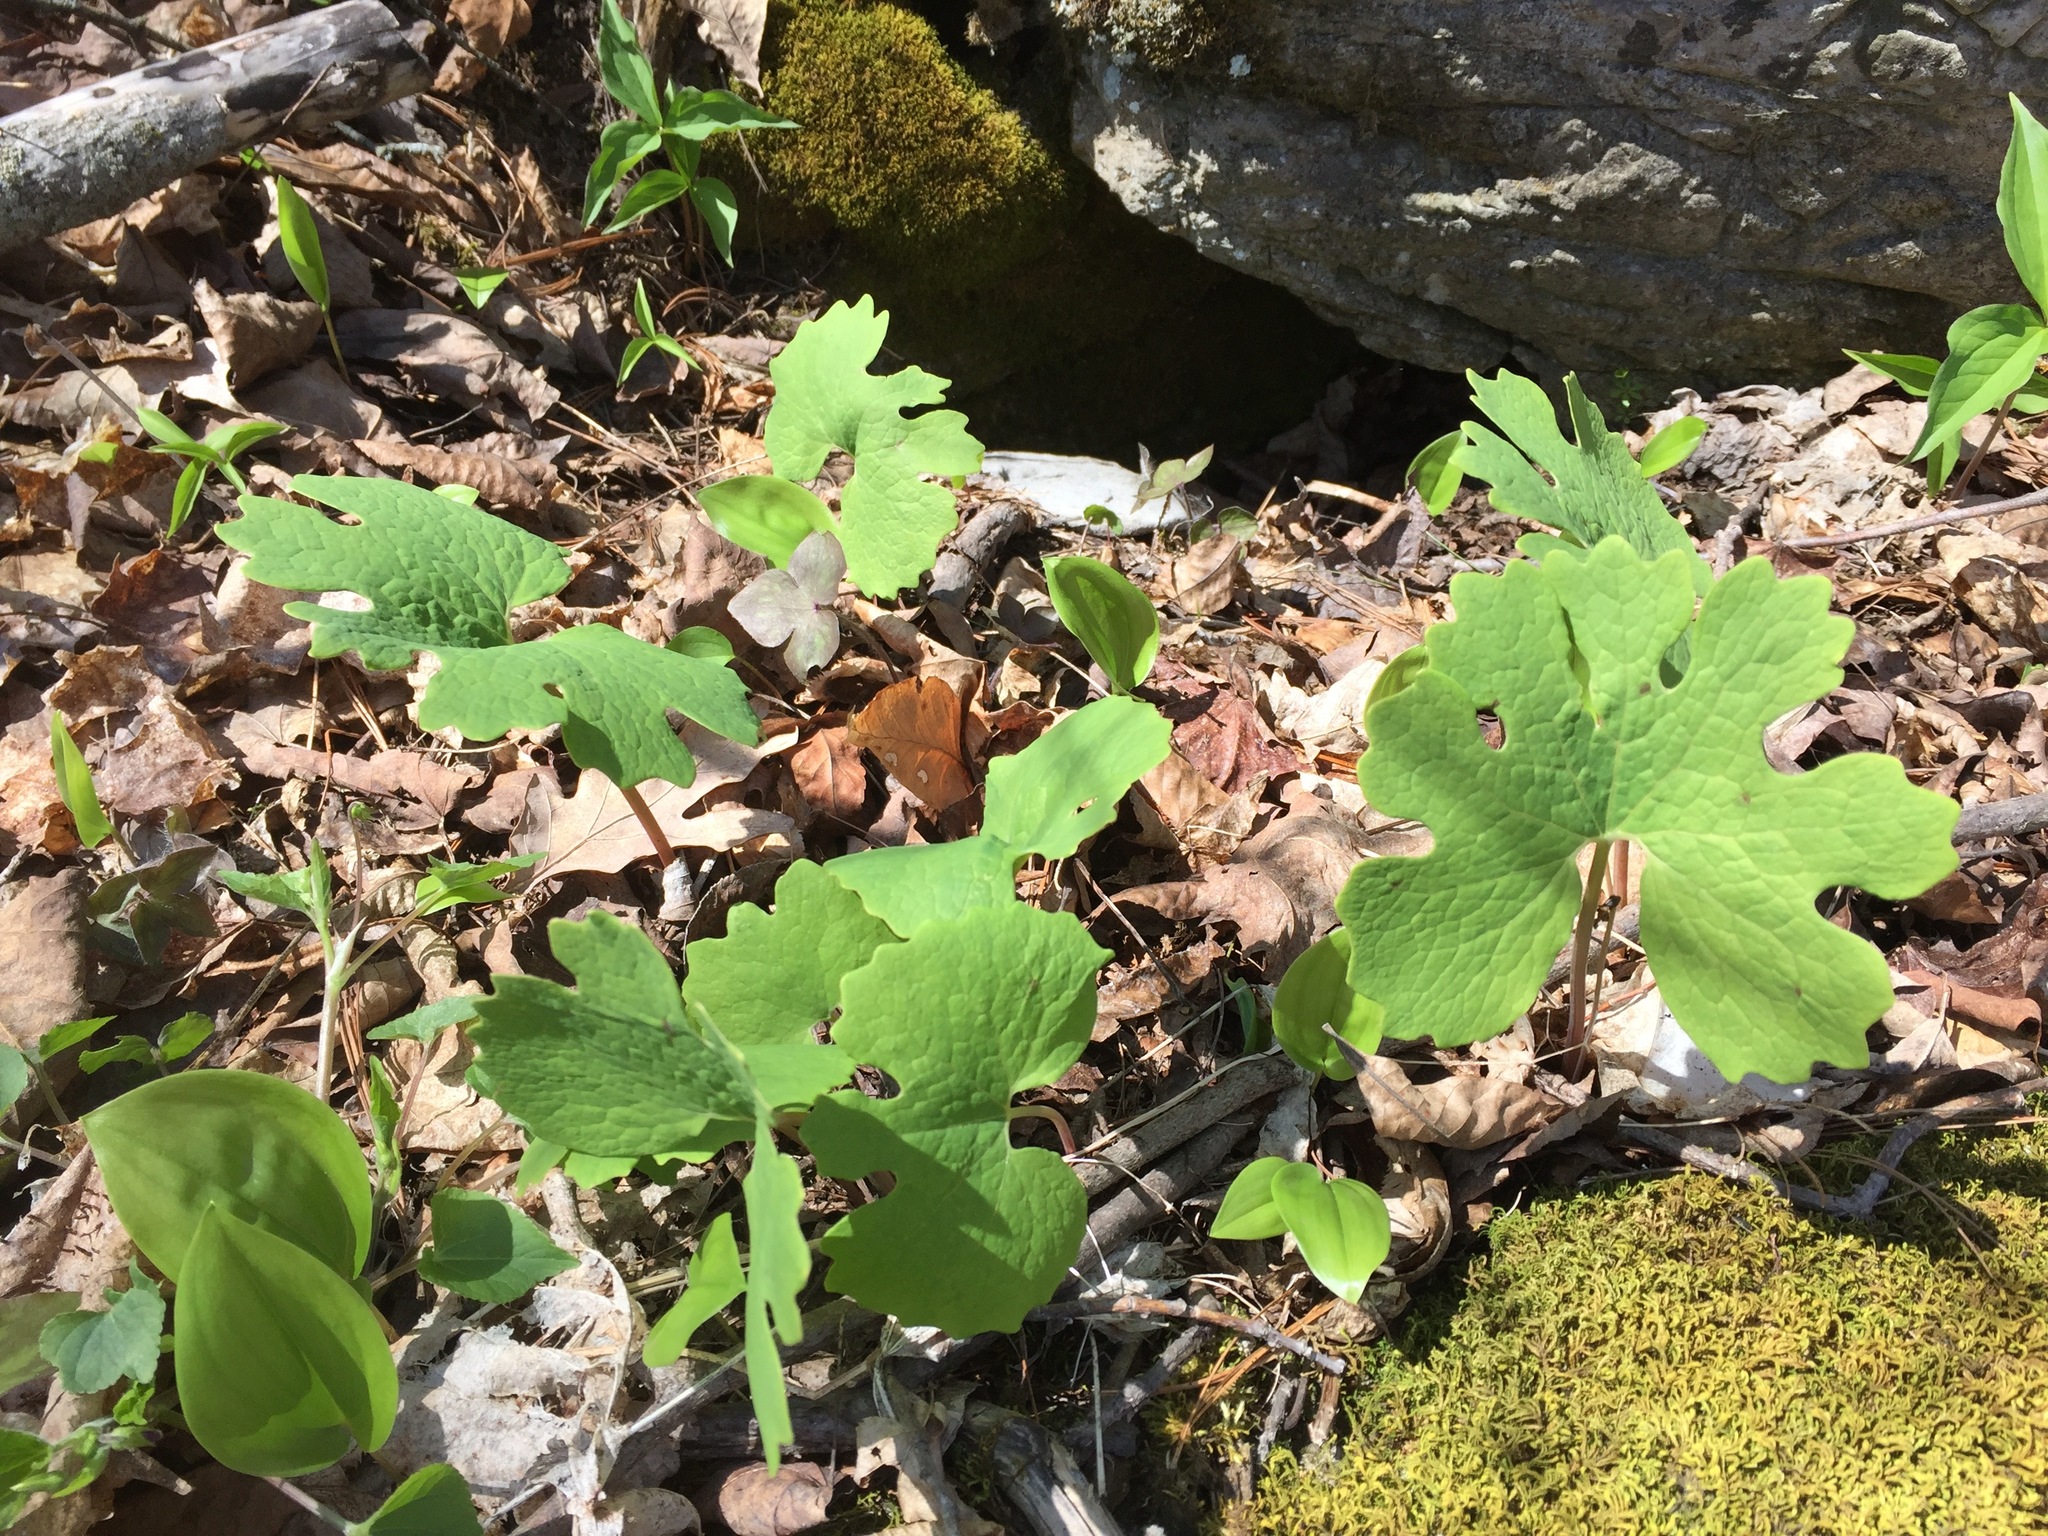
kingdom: Plantae
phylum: Tracheophyta
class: Magnoliopsida
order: Ranunculales
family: Papaveraceae
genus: Sanguinaria
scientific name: Sanguinaria canadensis
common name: Bloodroot
